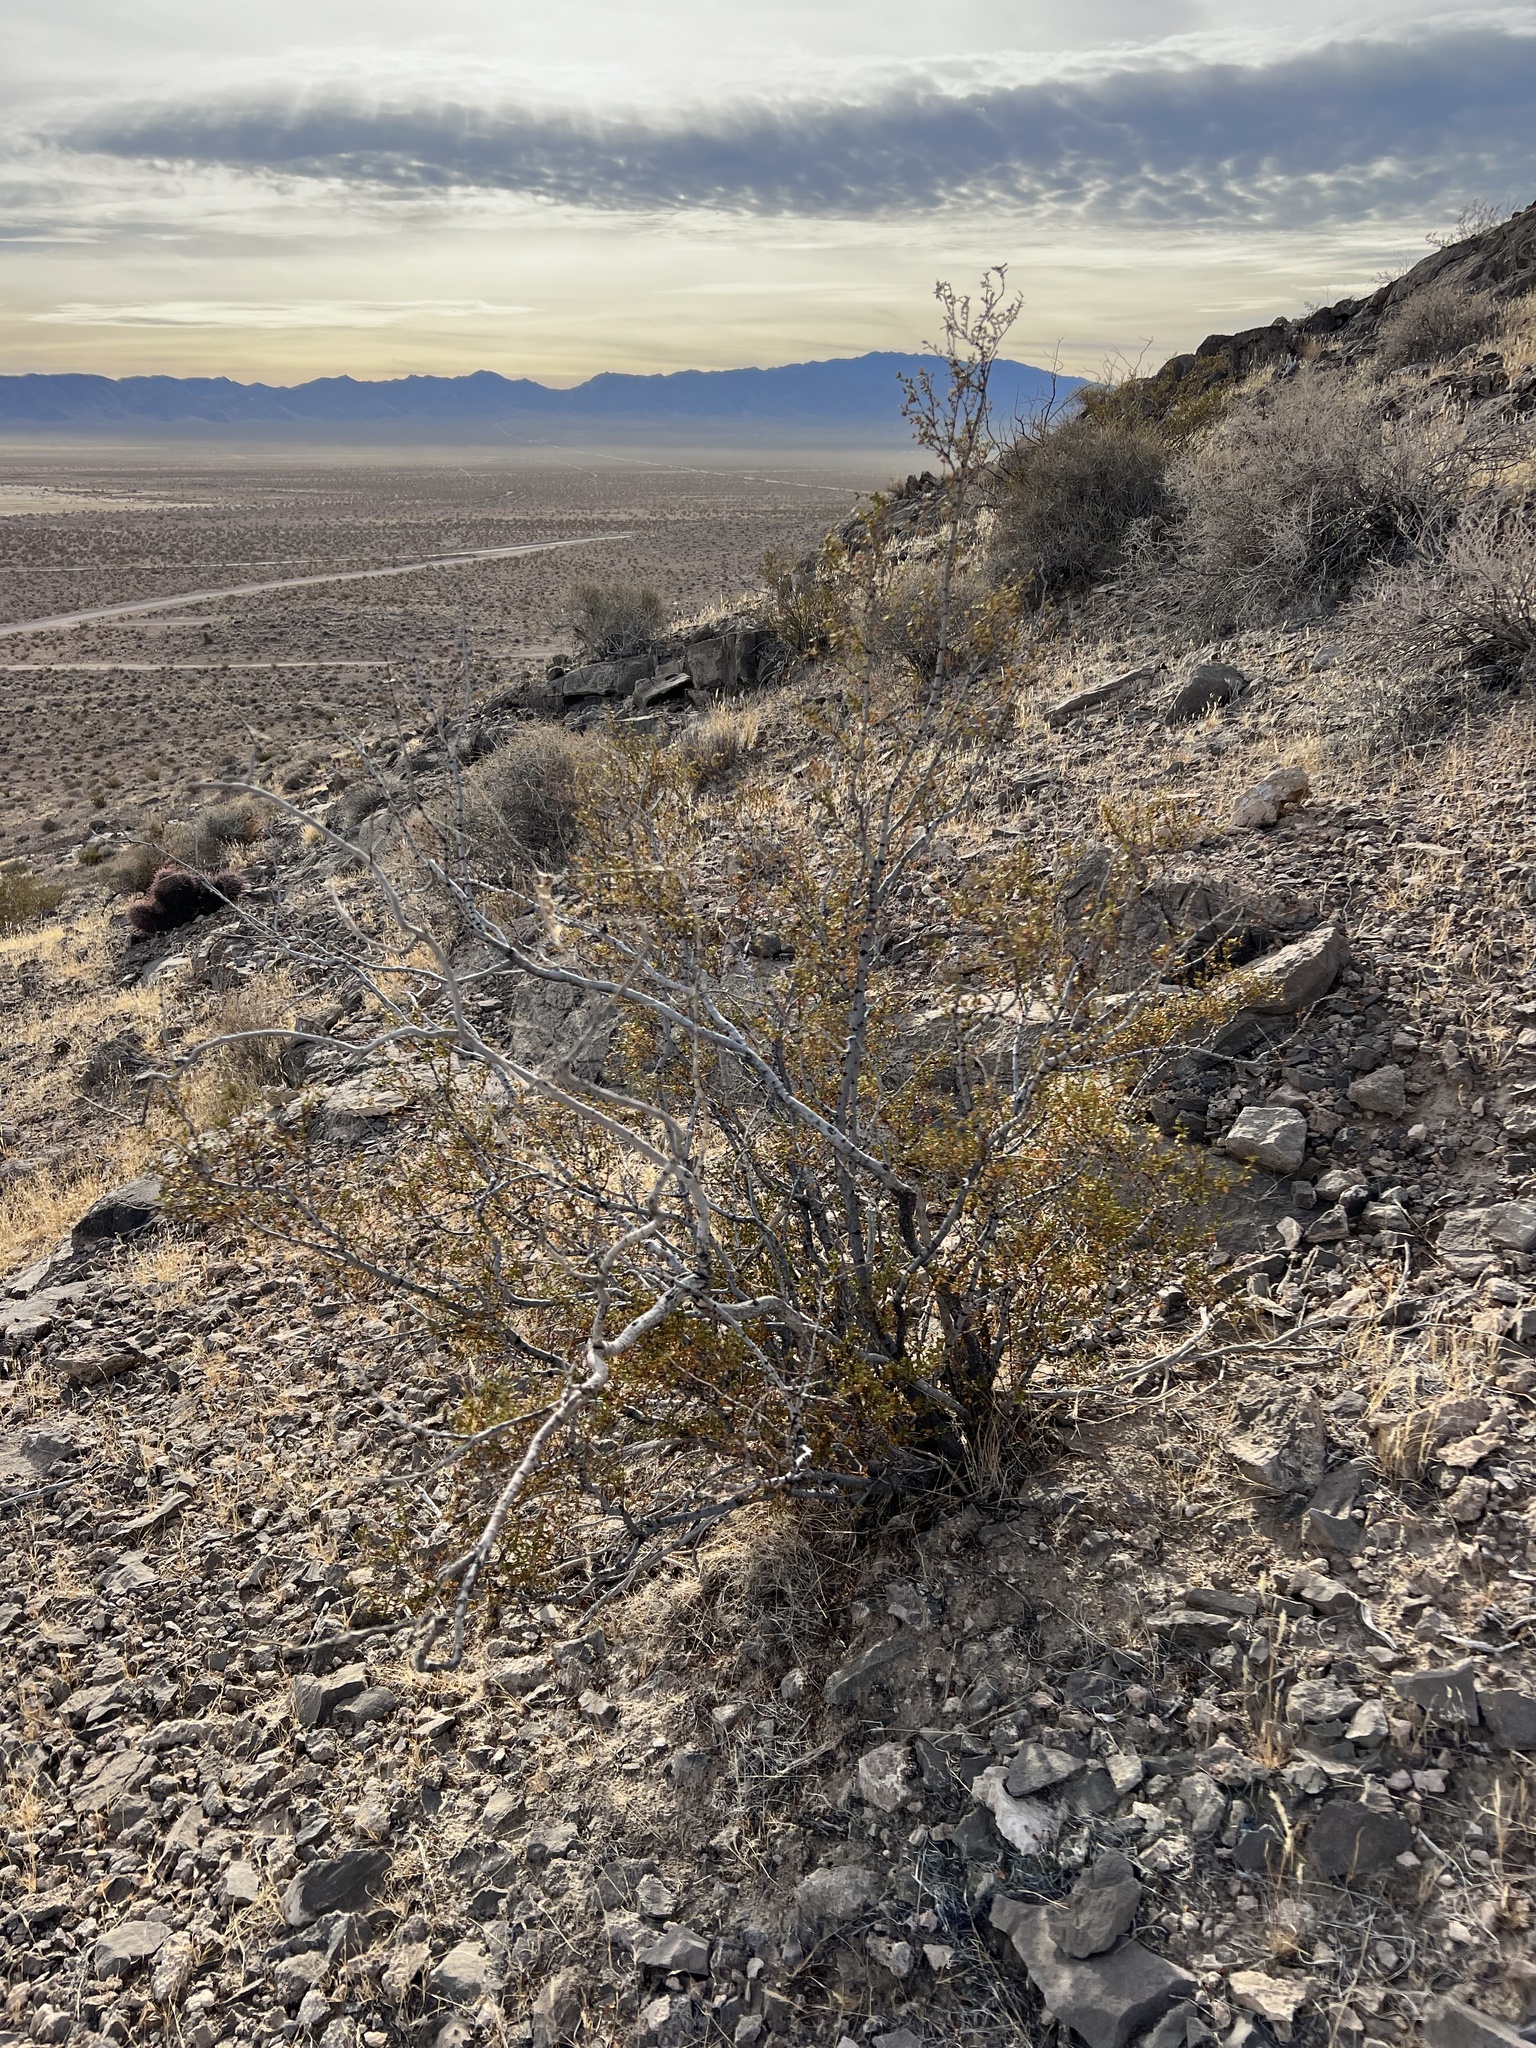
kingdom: Plantae
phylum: Tracheophyta
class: Magnoliopsida
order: Zygophyllales
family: Zygophyllaceae
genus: Larrea
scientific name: Larrea tridentata
